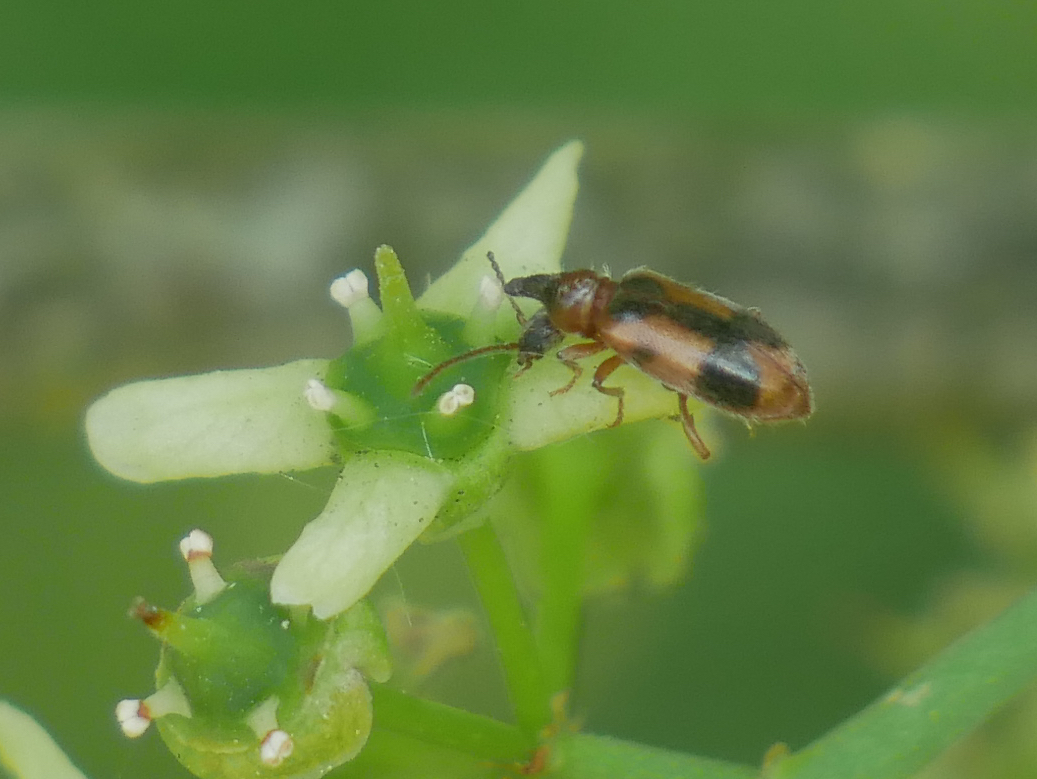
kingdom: Animalia
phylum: Arthropoda
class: Insecta
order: Coleoptera
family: Anthicidae
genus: Notoxus
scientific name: Notoxus monoceros
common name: Monoceros beetle
